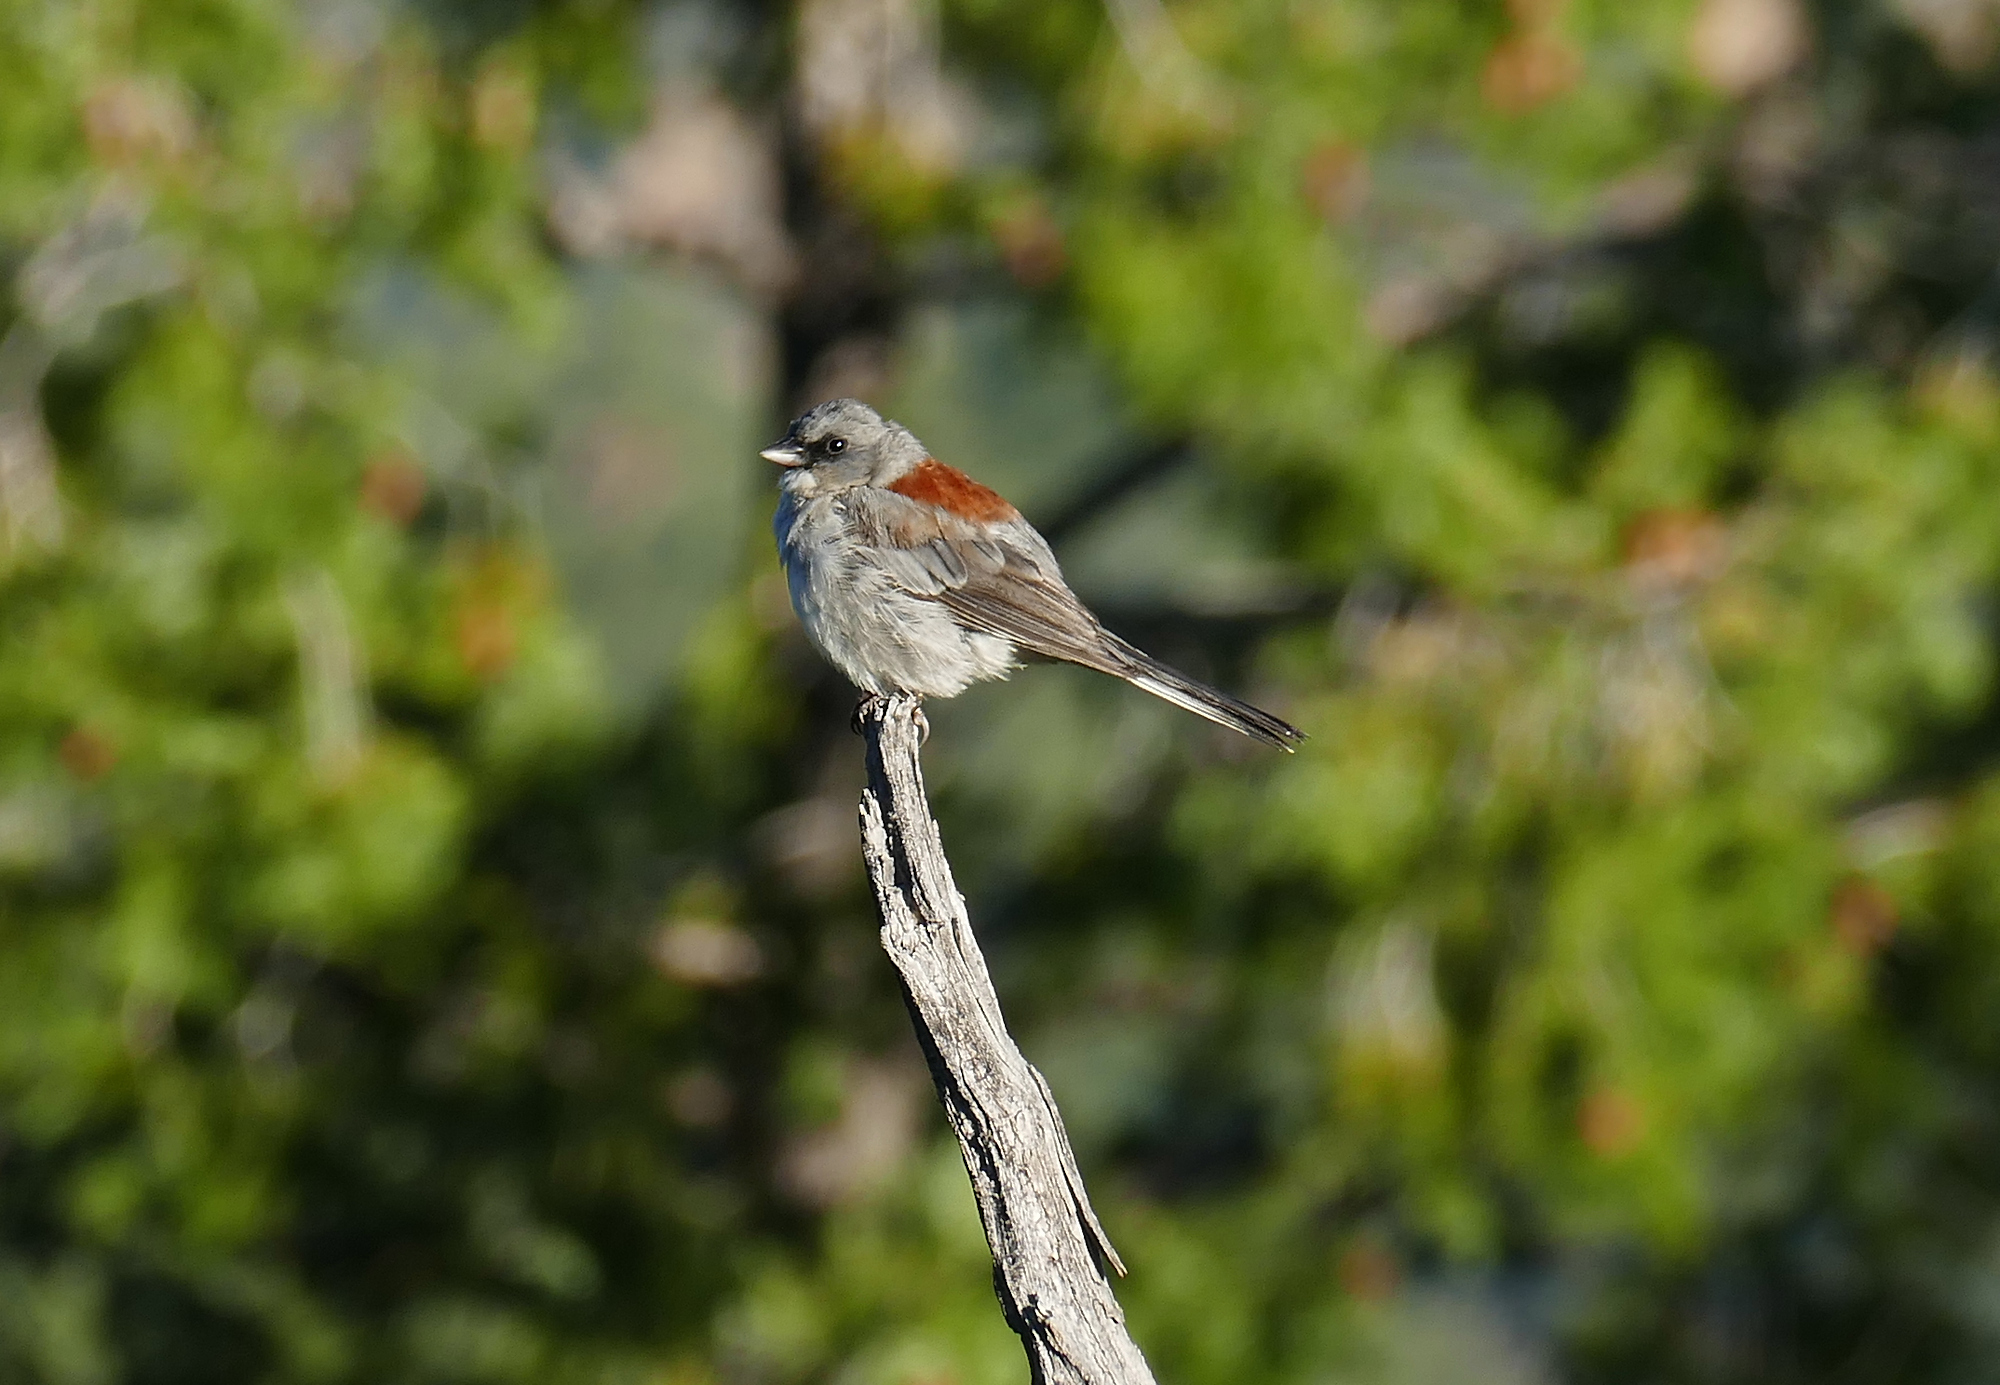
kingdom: Animalia
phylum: Chordata
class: Aves
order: Passeriformes
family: Passerellidae
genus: Junco
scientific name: Junco hyemalis
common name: Dark-eyed junco
